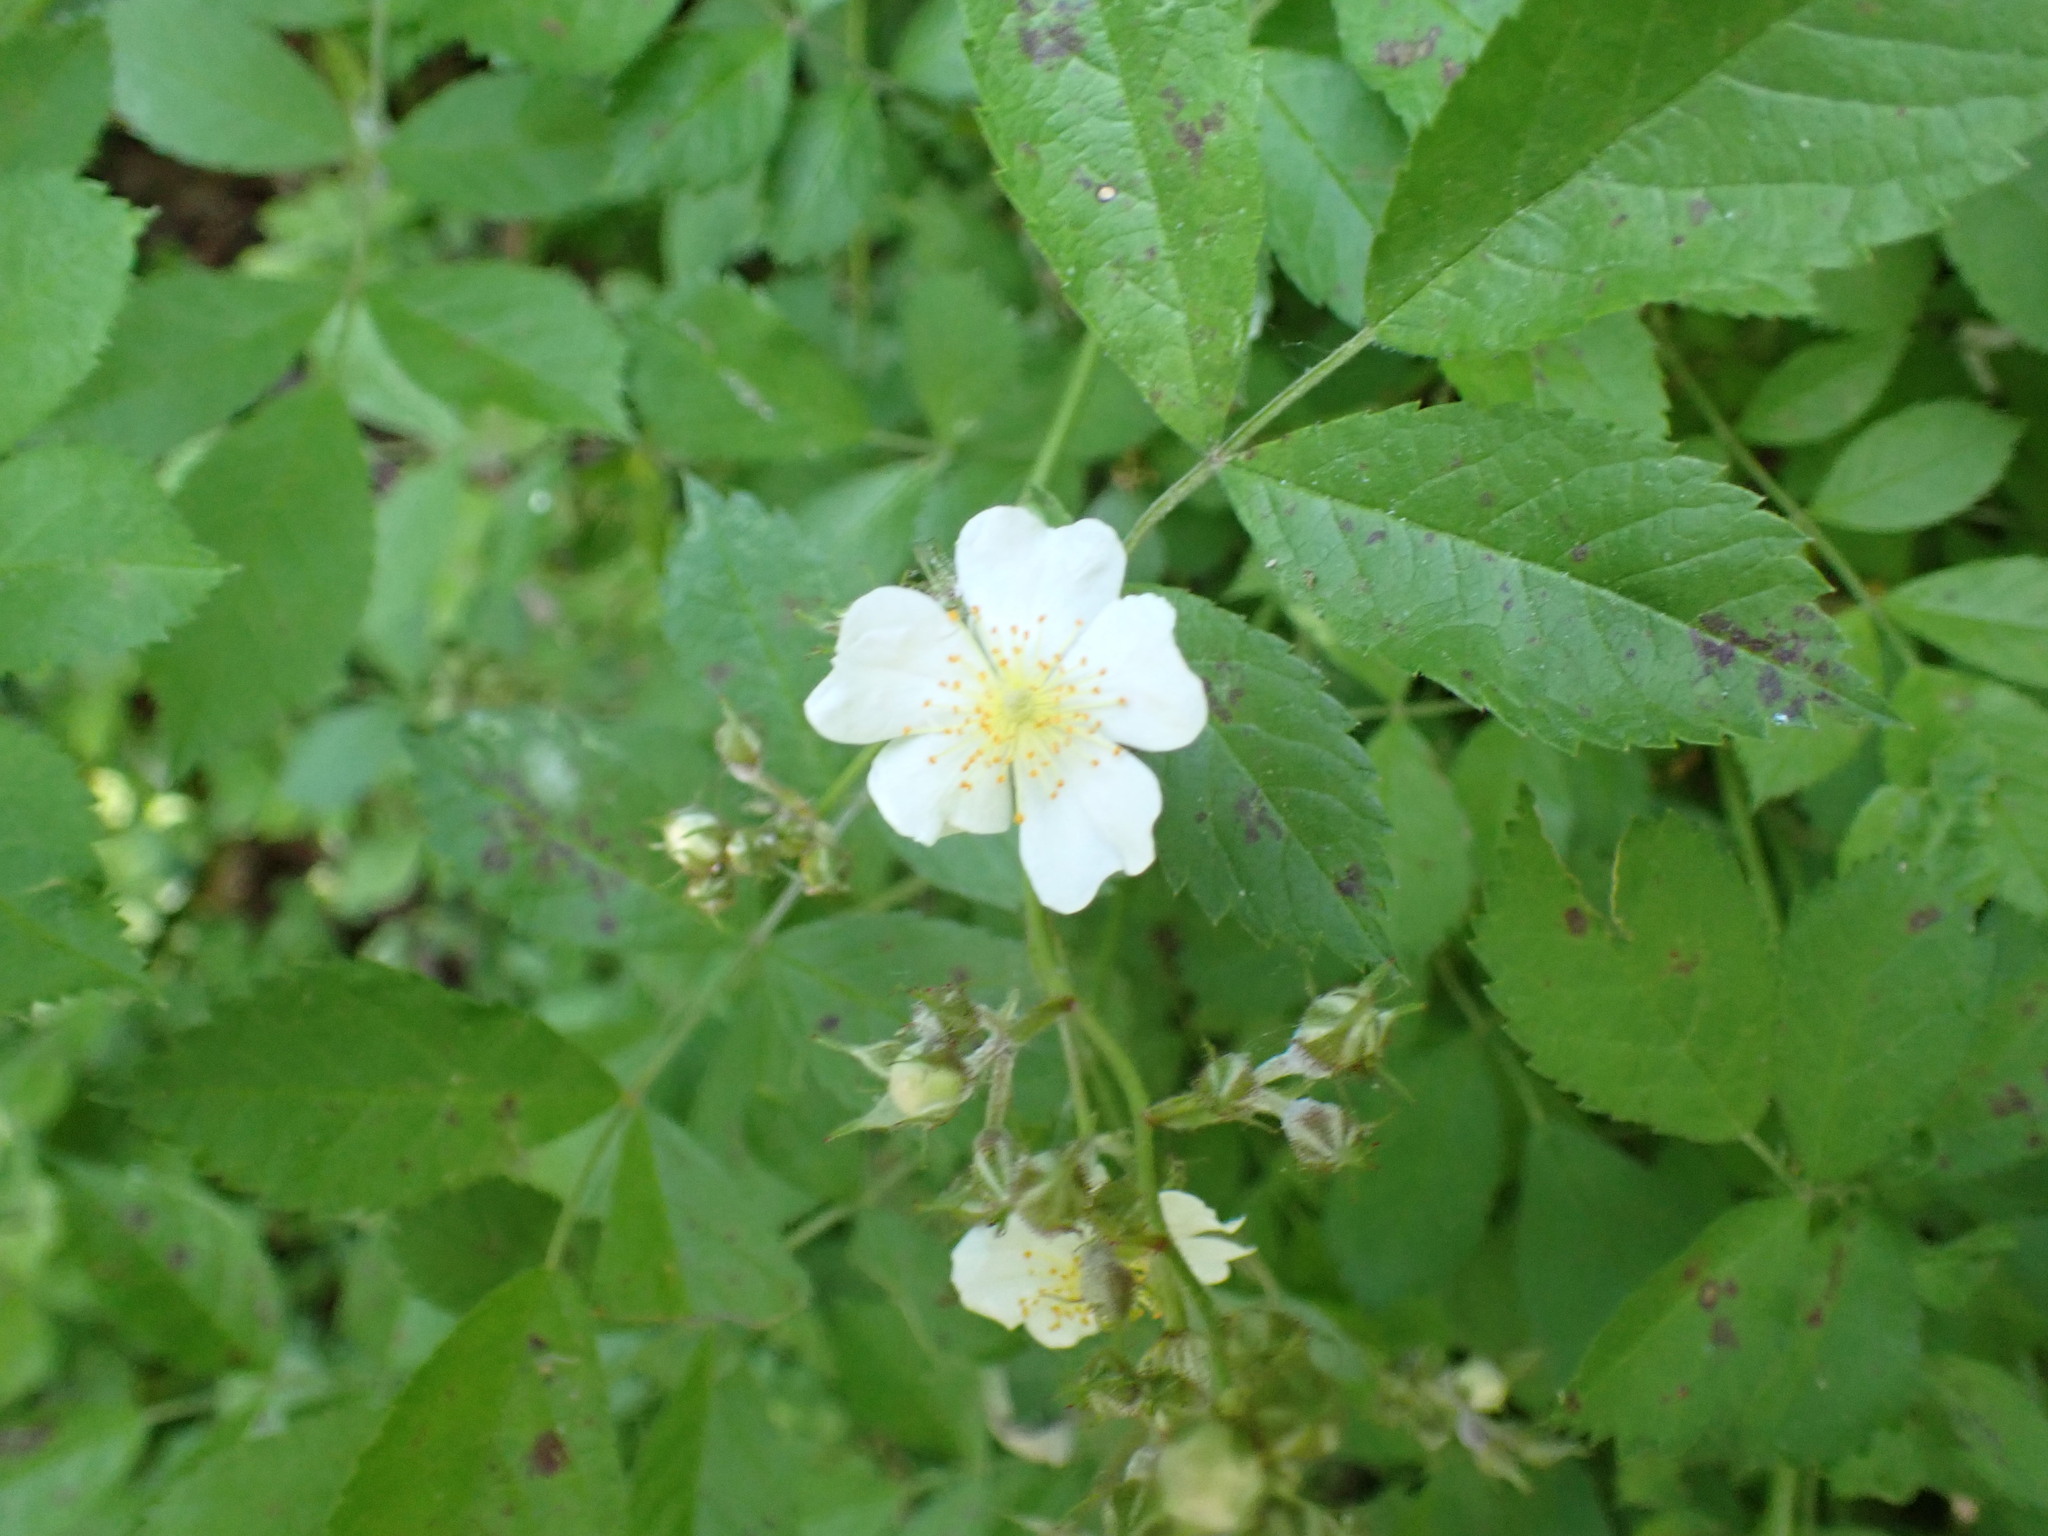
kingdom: Plantae
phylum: Tracheophyta
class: Magnoliopsida
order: Rosales
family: Rosaceae
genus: Rosa
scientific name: Rosa multiflora
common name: Multiflora rose
